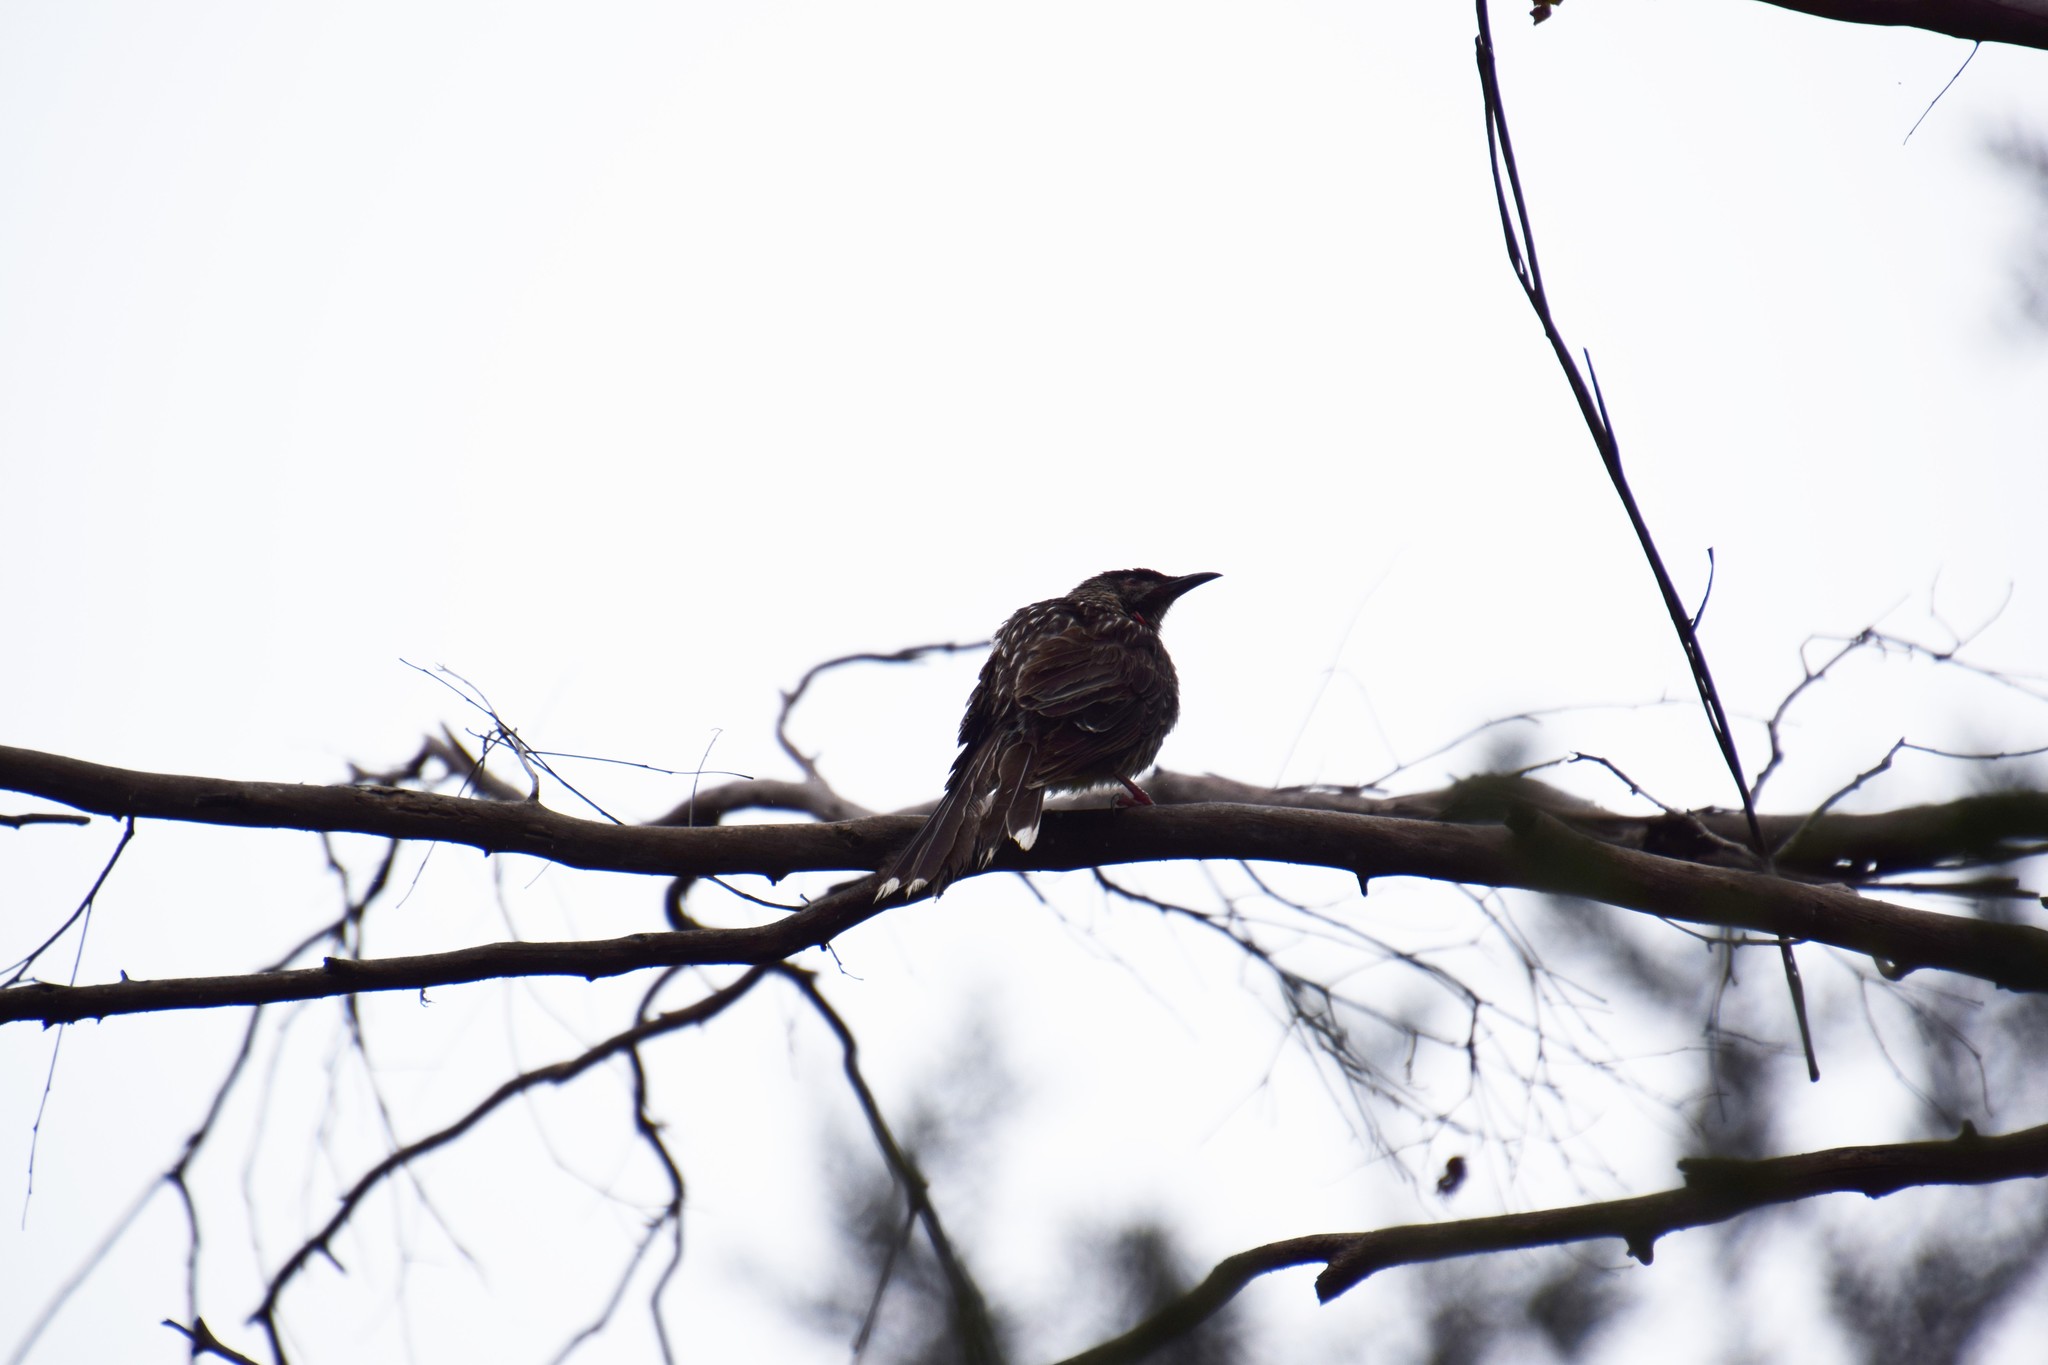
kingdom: Animalia
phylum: Chordata
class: Aves
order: Passeriformes
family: Meliphagidae
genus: Anthochaera
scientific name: Anthochaera carunculata
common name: Red wattlebird
